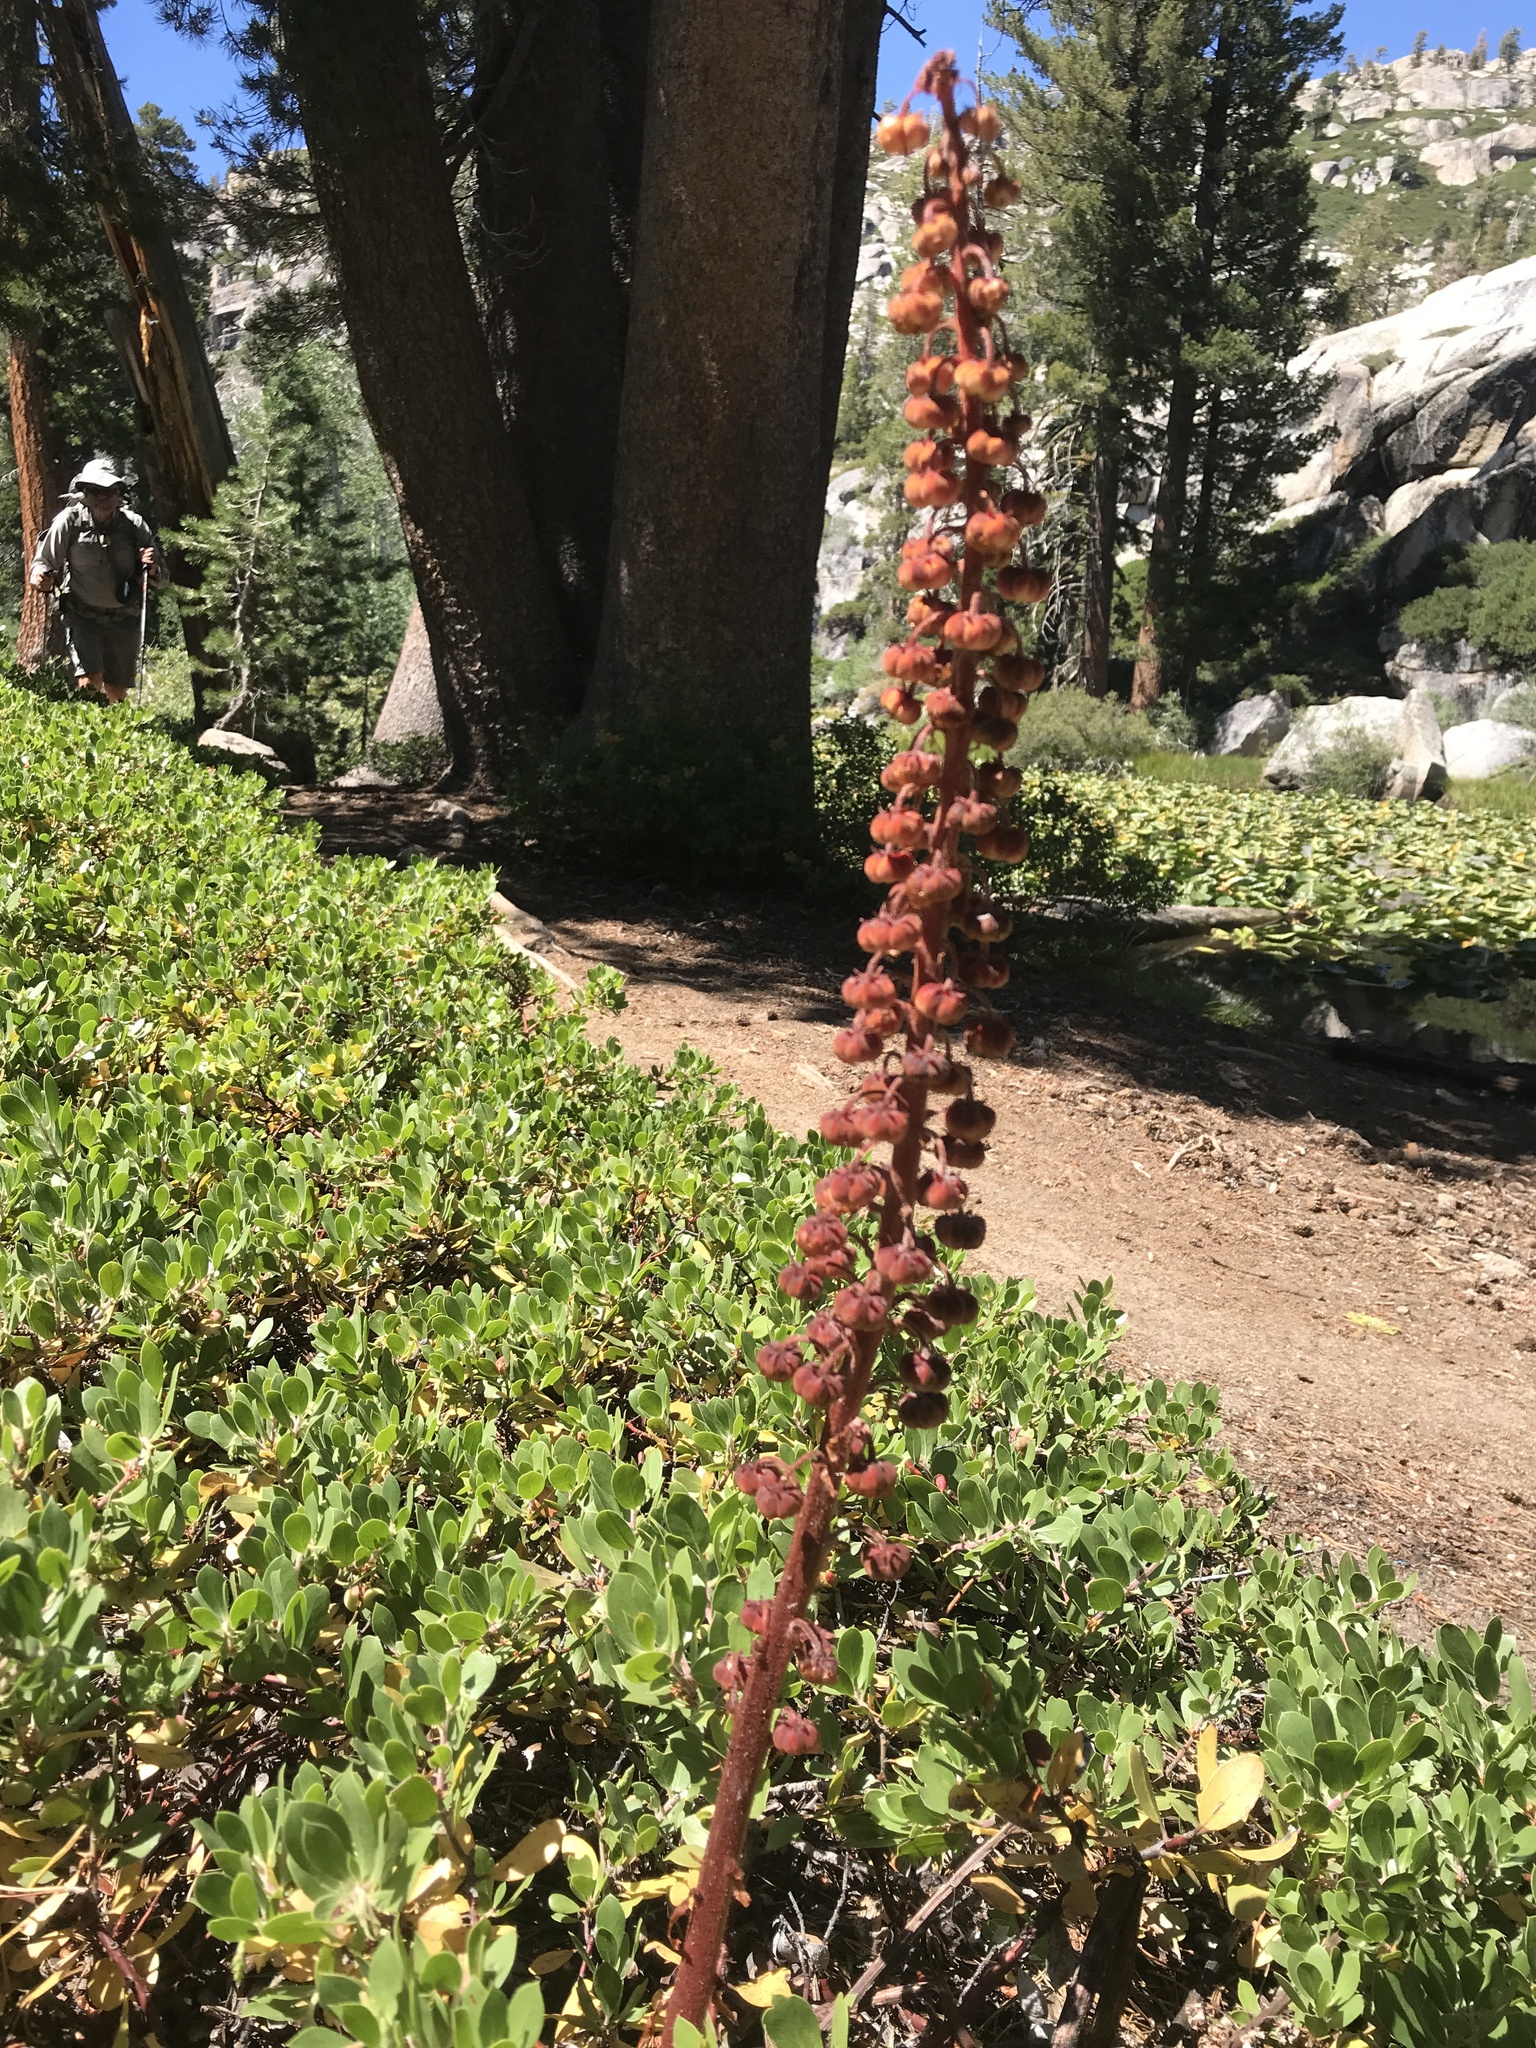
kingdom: Plantae
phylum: Tracheophyta
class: Magnoliopsida
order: Ericales
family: Ericaceae
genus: Pterospora
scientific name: Pterospora andromedea
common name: Giant bird's-nest
